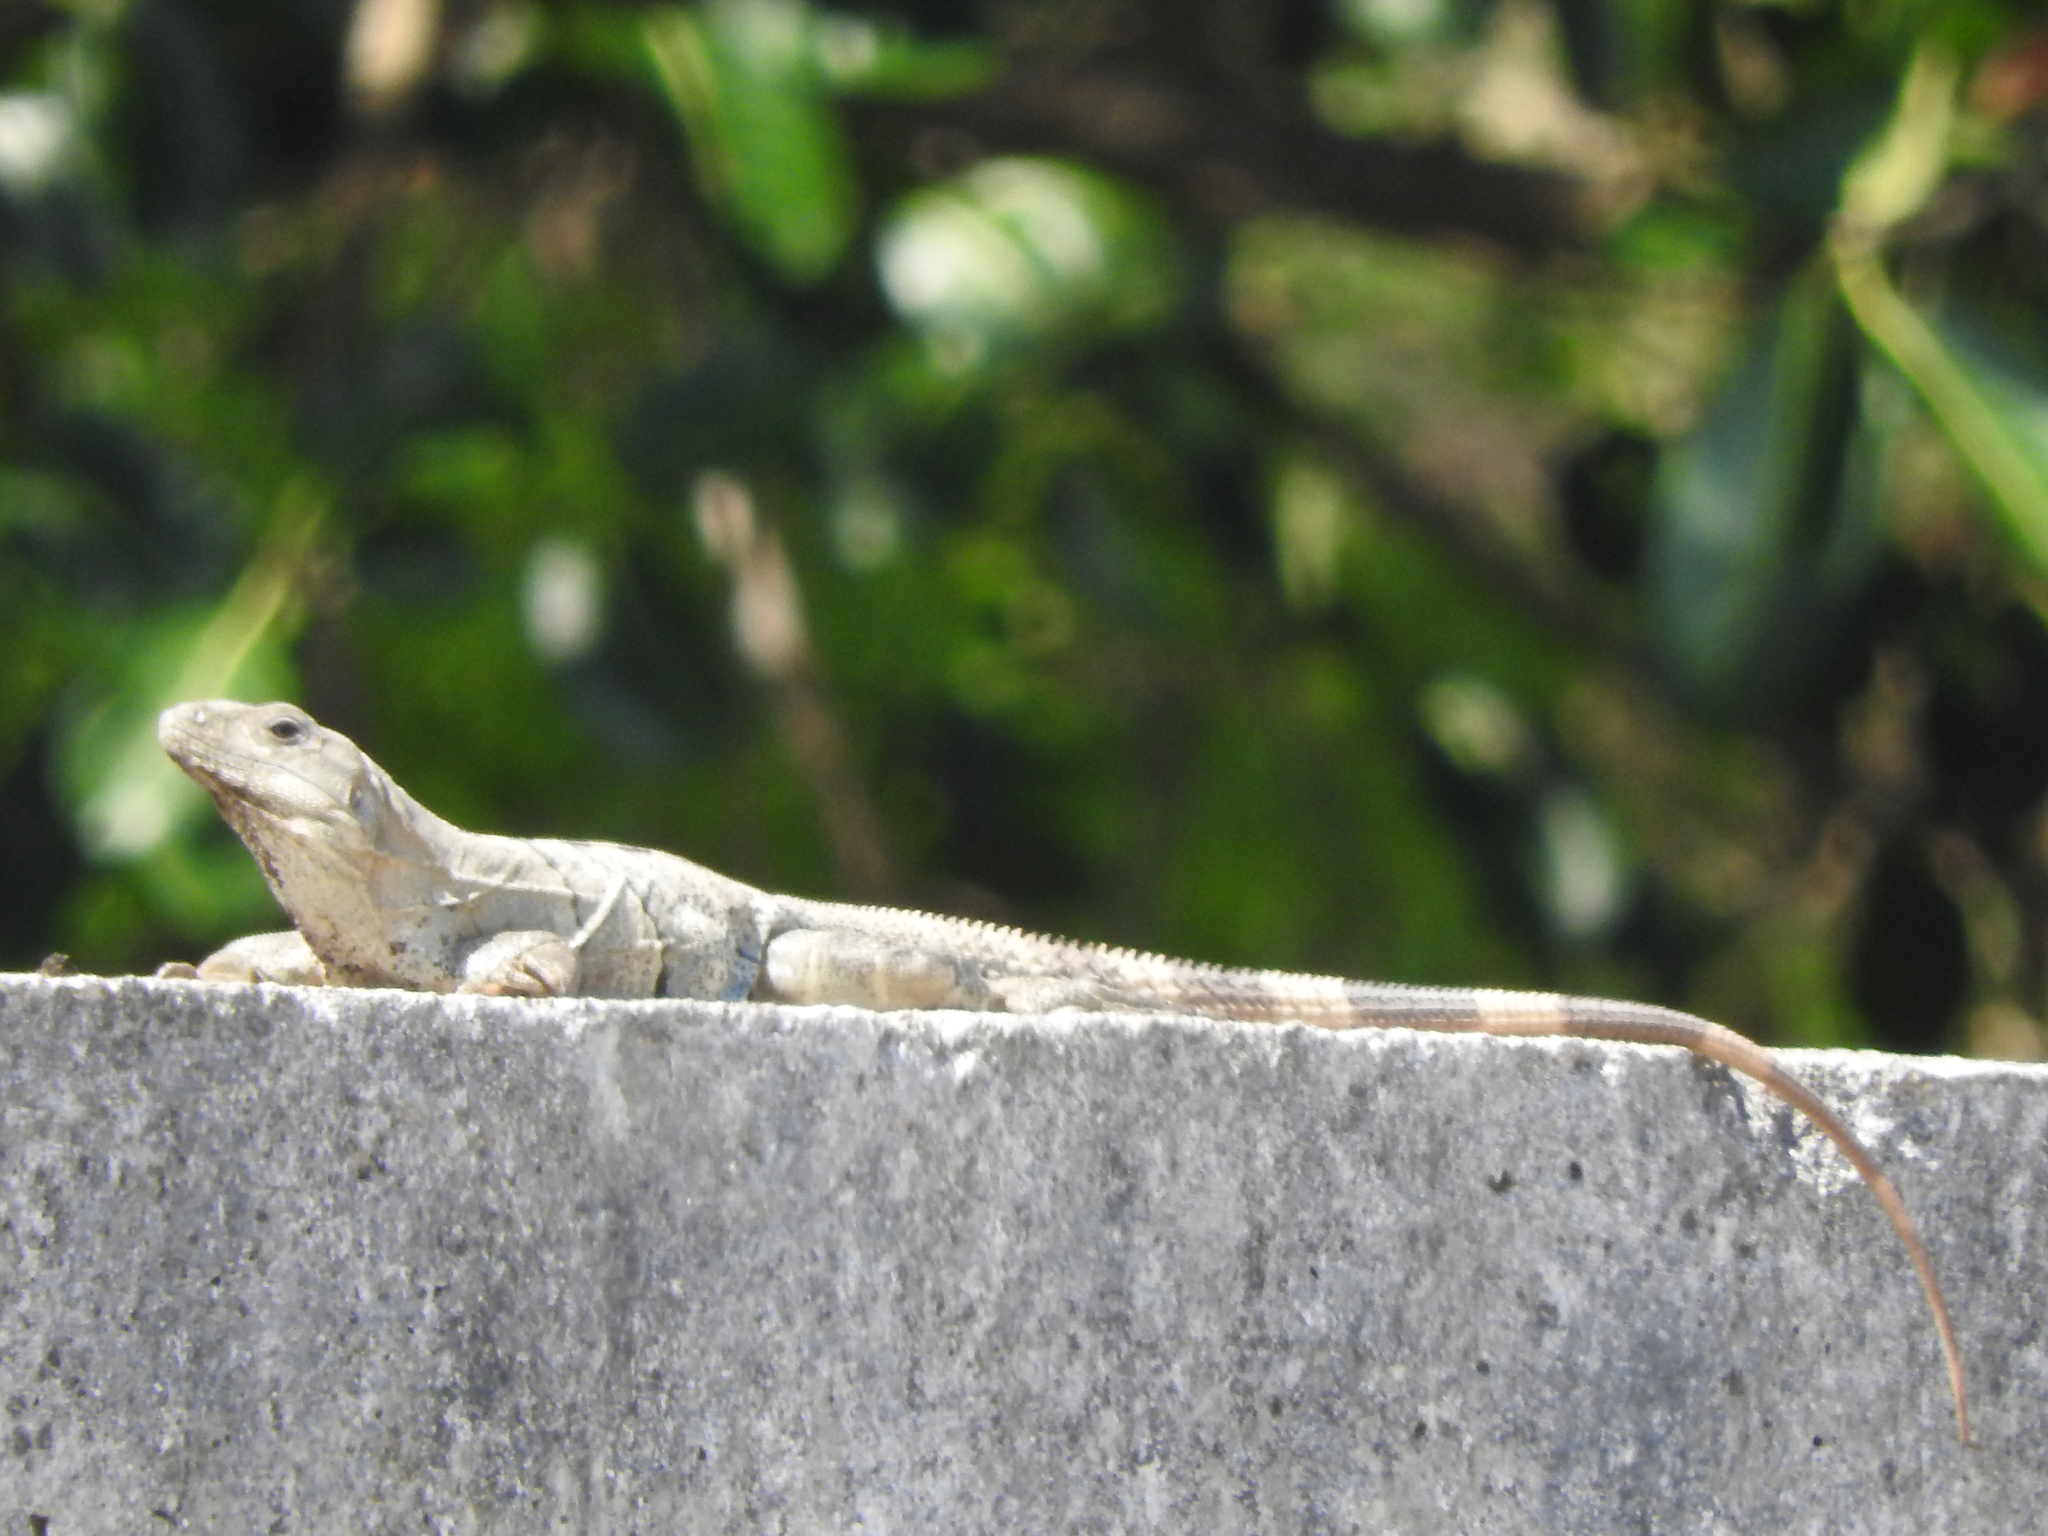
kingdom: Animalia
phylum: Chordata
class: Squamata
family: Iguanidae
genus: Ctenosaura
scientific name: Ctenosaura similis
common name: Black spiny-tailed iguana
